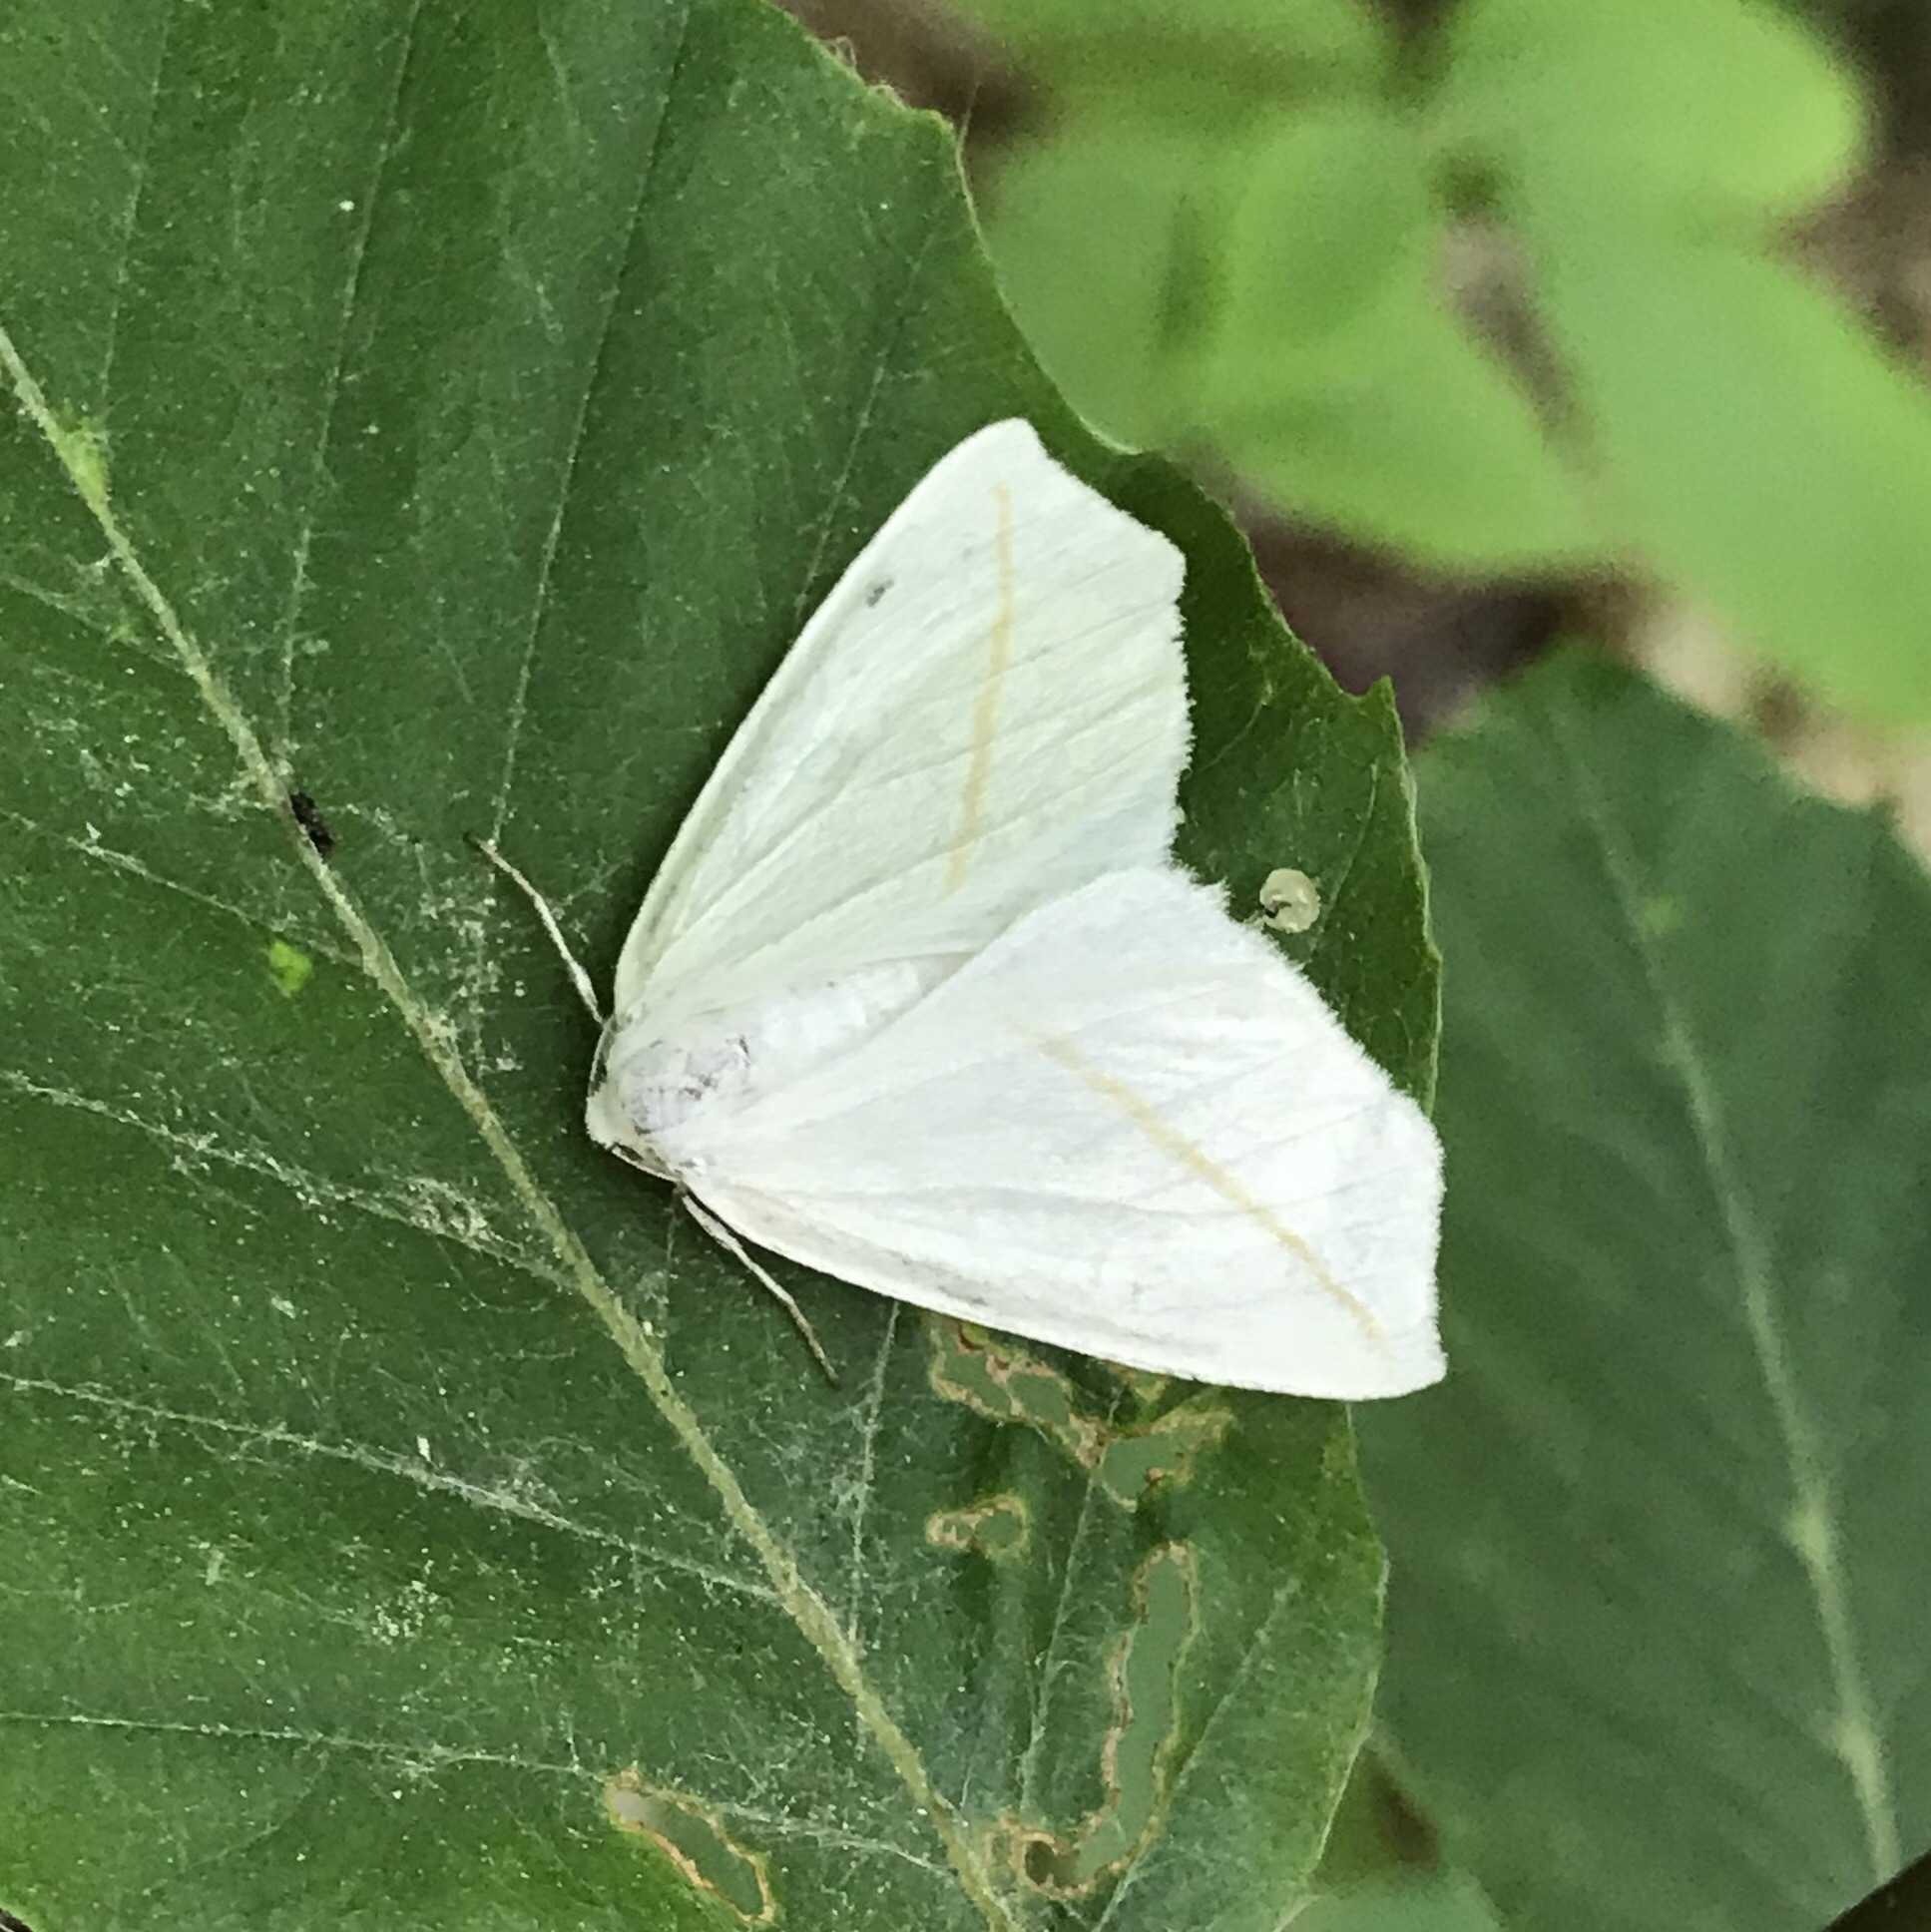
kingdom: Animalia
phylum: Arthropoda
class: Insecta
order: Lepidoptera
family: Geometridae
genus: Tetracis
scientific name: Tetracis cachexiata
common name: White slant-line
